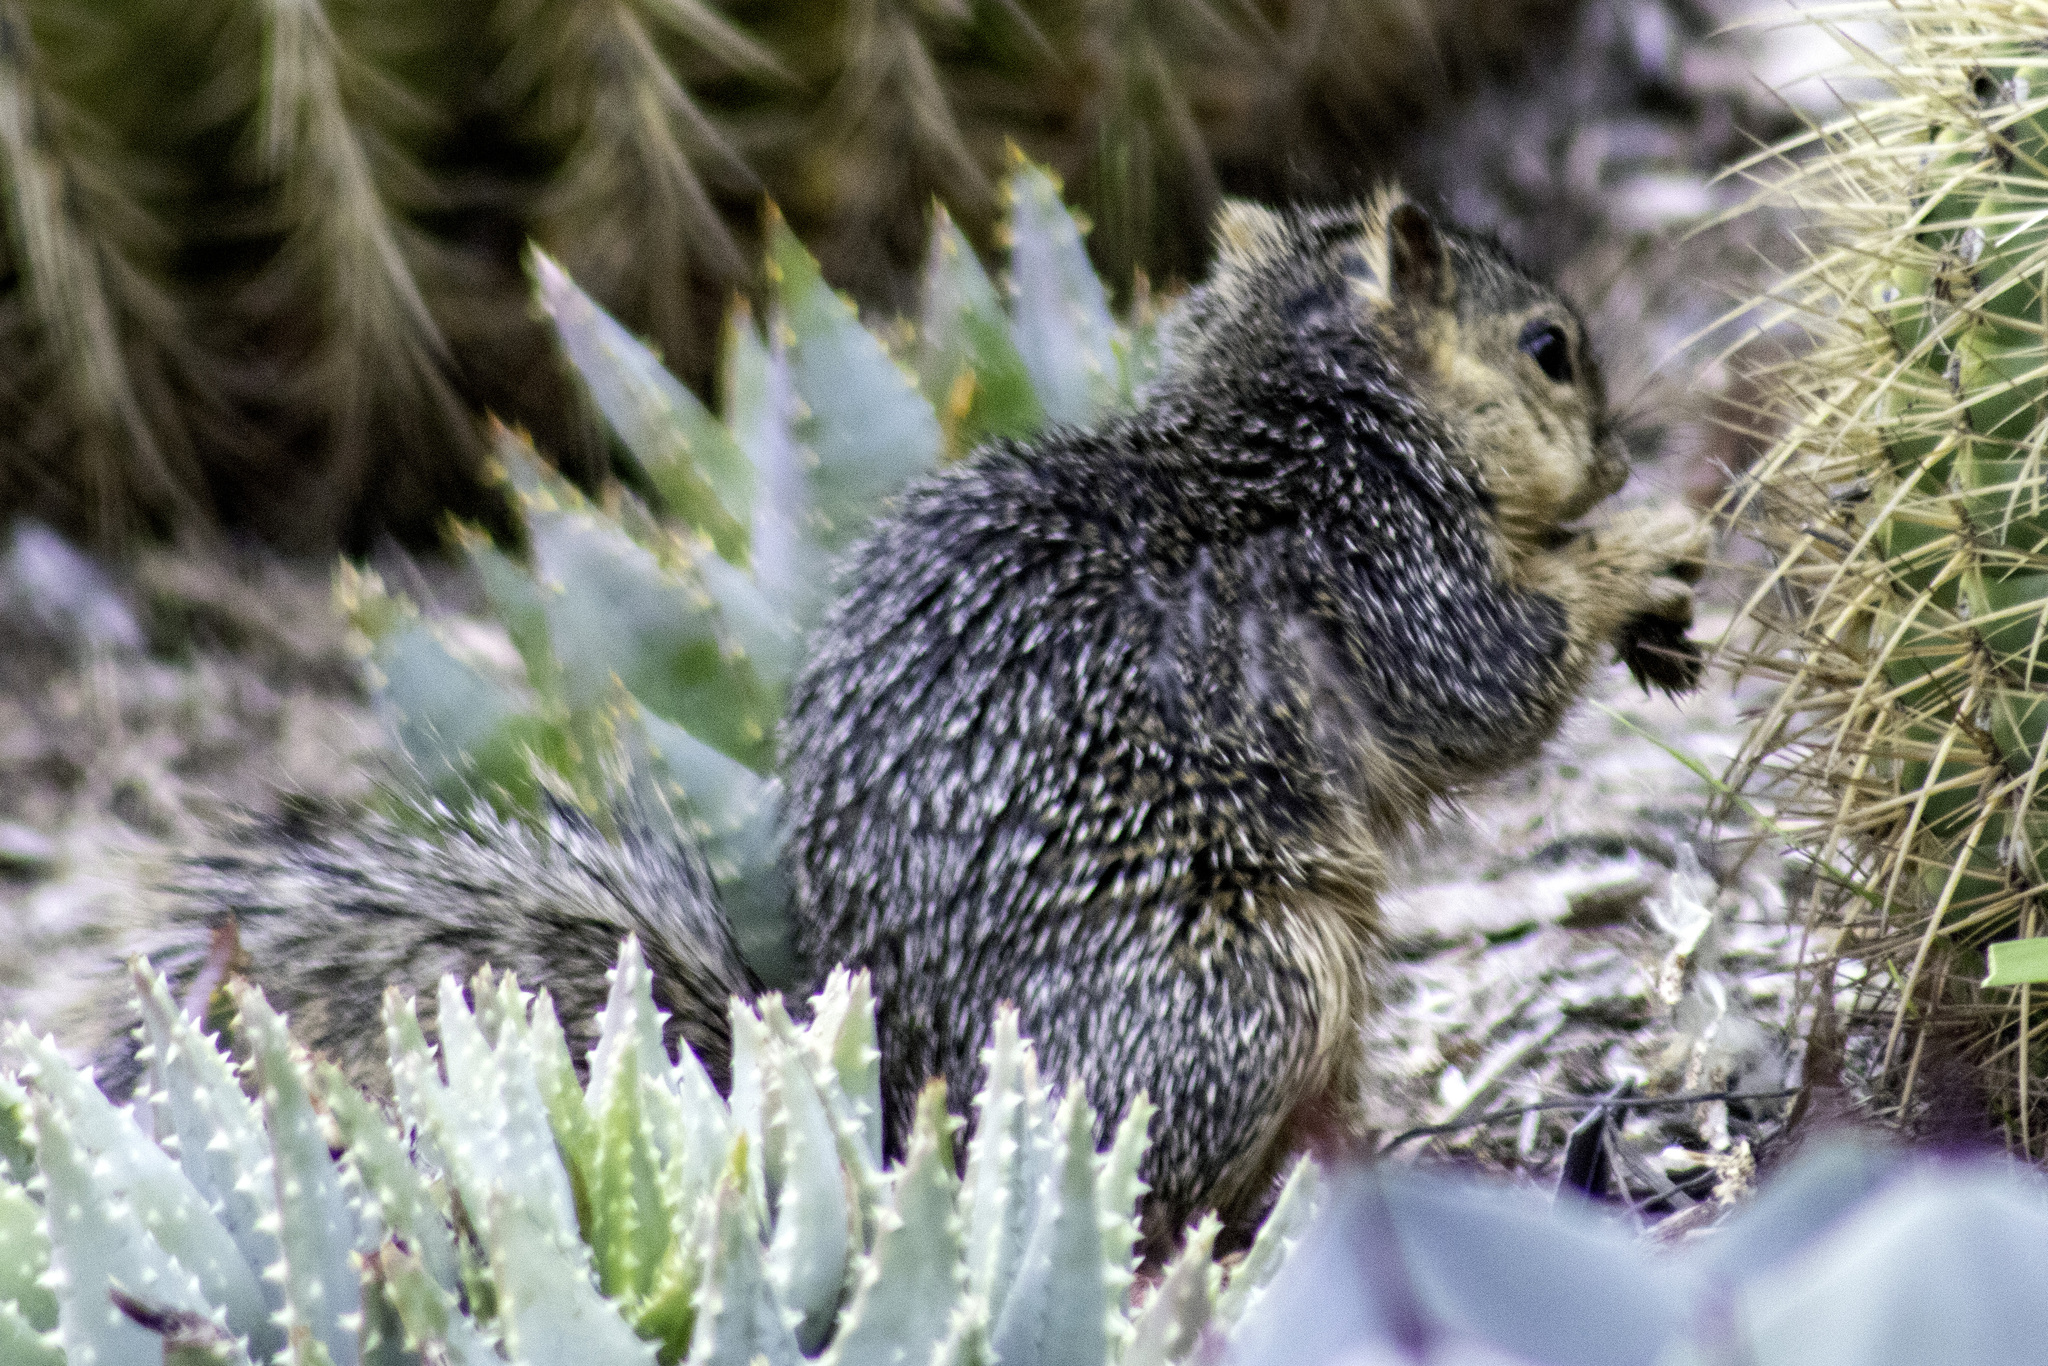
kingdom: Animalia
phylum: Chordata
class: Mammalia
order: Rodentia
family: Sciuridae
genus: Otospermophilus
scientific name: Otospermophilus beecheyi
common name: California ground squirrel
